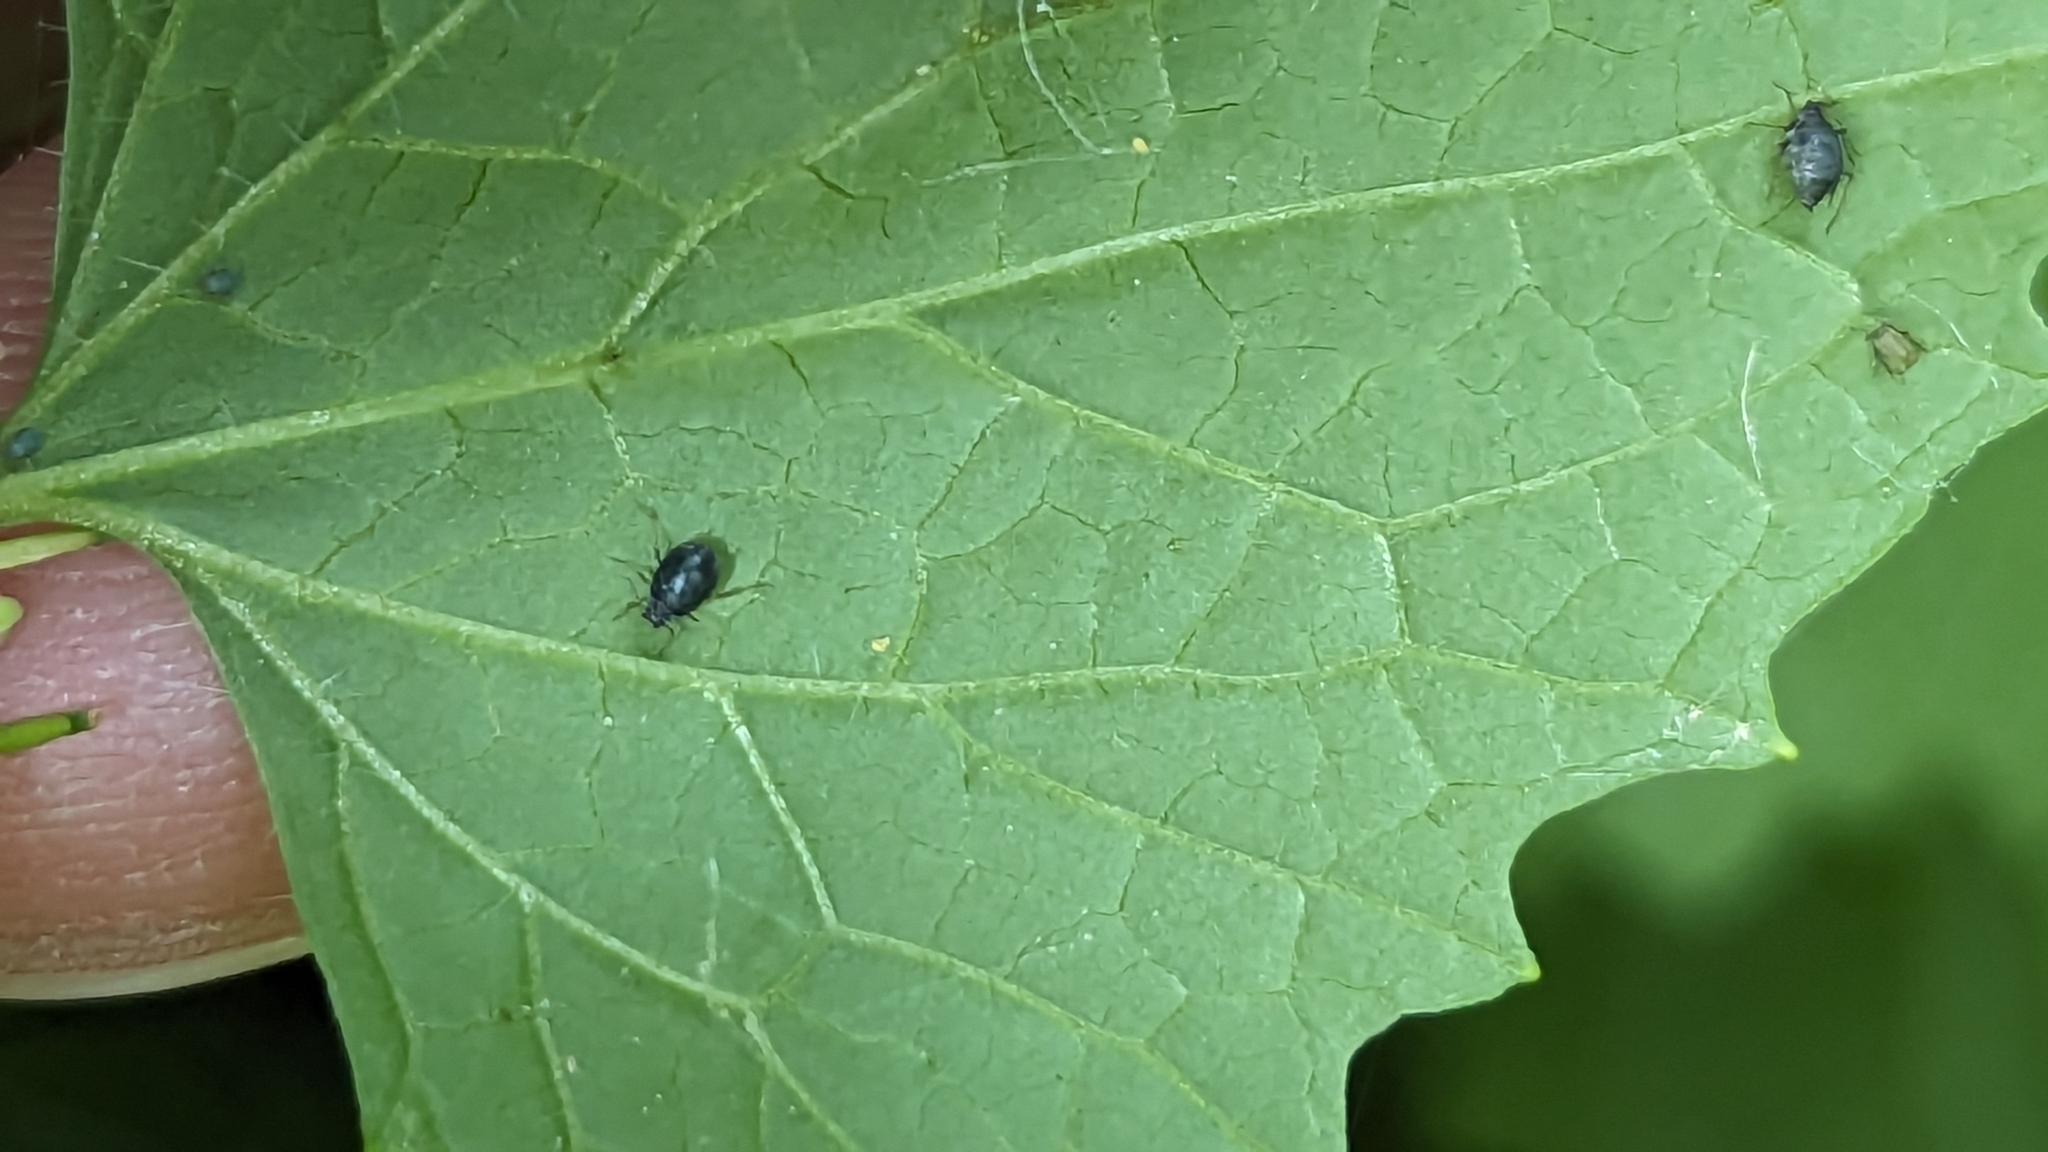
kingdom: Animalia
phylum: Arthropoda
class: Insecta
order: Hemiptera
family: Aphididae
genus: Lipaphis
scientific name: Lipaphis alliariae
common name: Granade aphid
